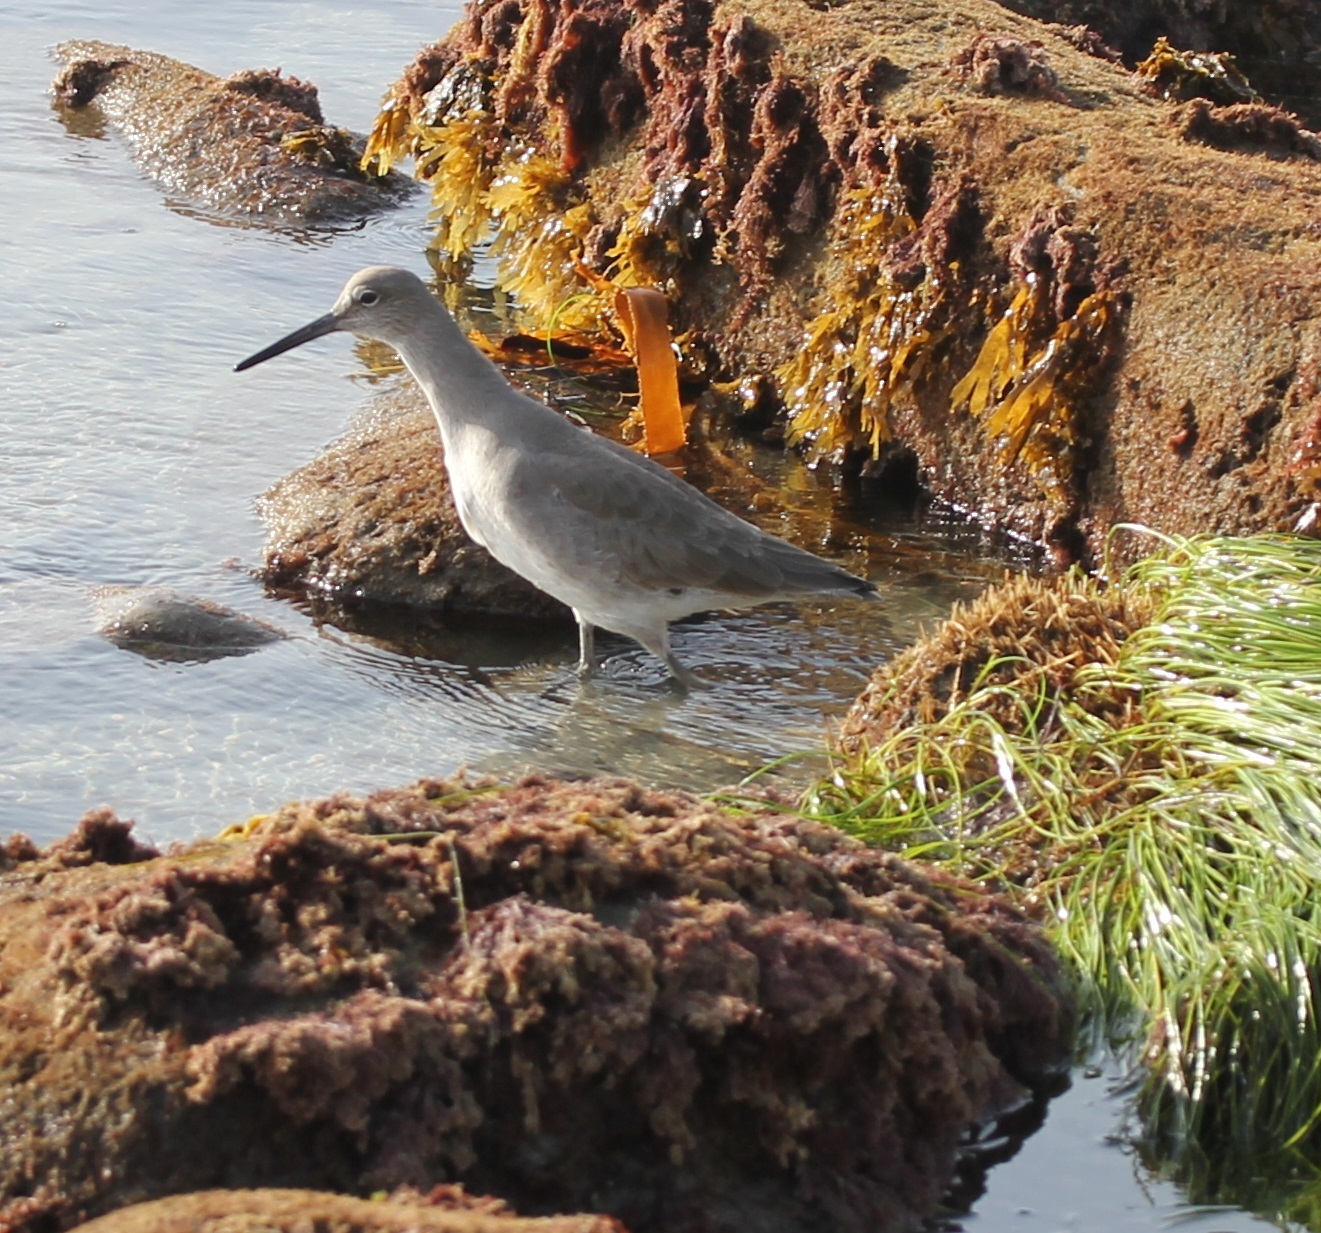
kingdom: Animalia
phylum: Chordata
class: Aves
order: Charadriiformes
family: Scolopacidae
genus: Tringa
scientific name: Tringa semipalmata
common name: Willet
